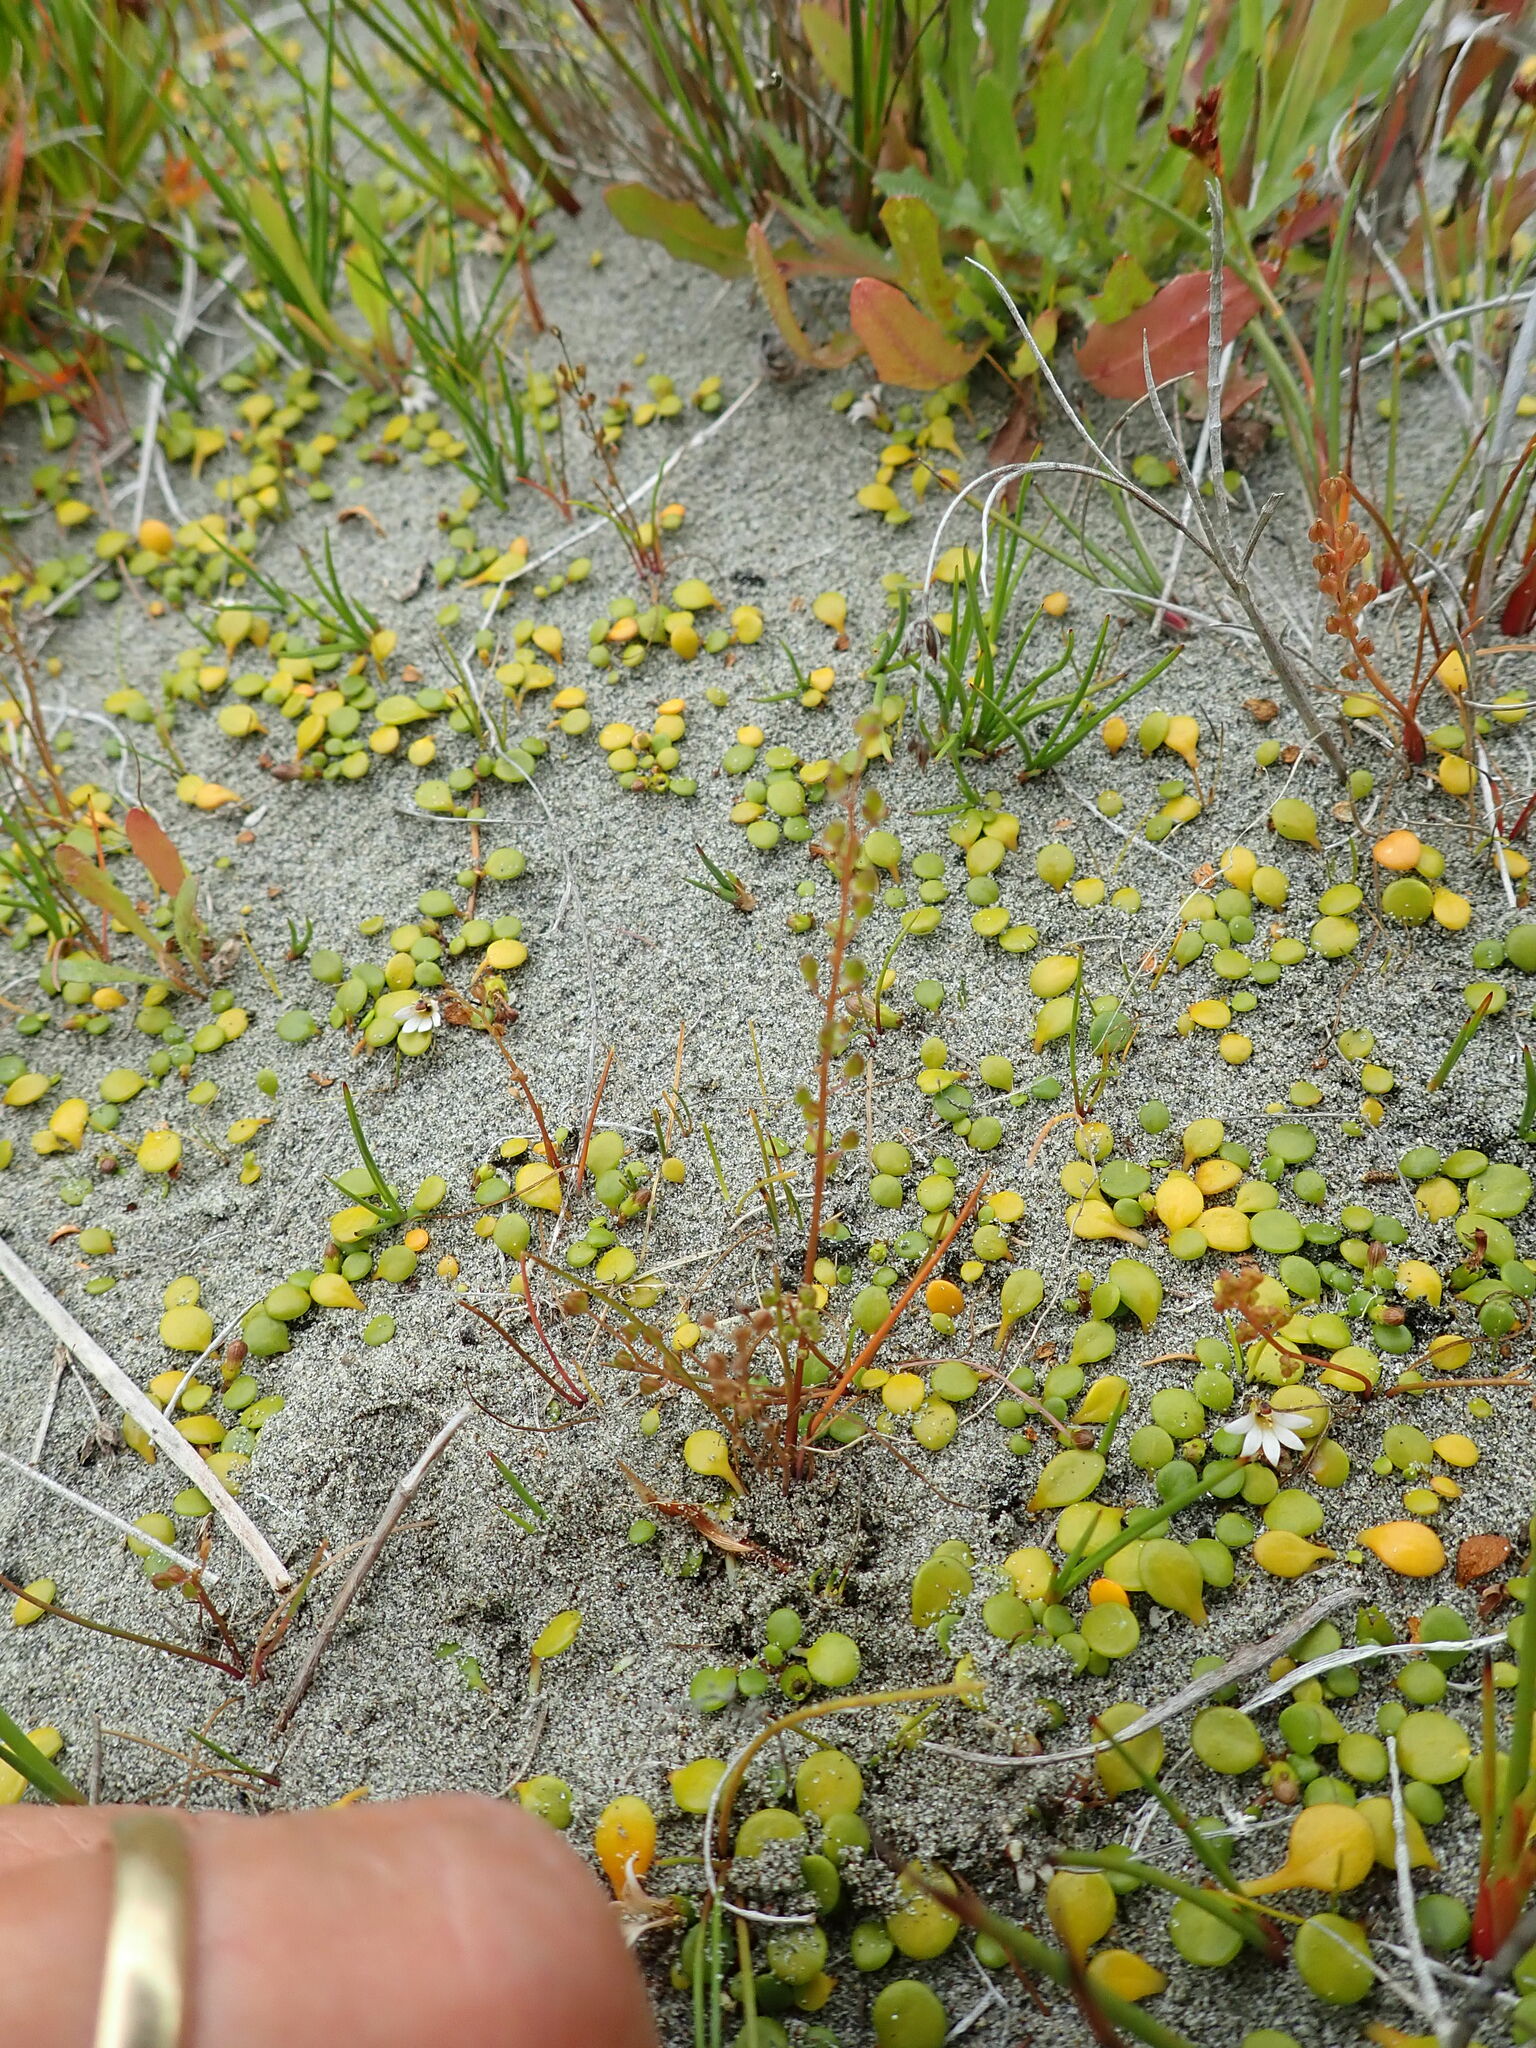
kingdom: Plantae
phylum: Tracheophyta
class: Liliopsida
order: Alismatales
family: Juncaginaceae
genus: Triglochin
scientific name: Triglochin striata
